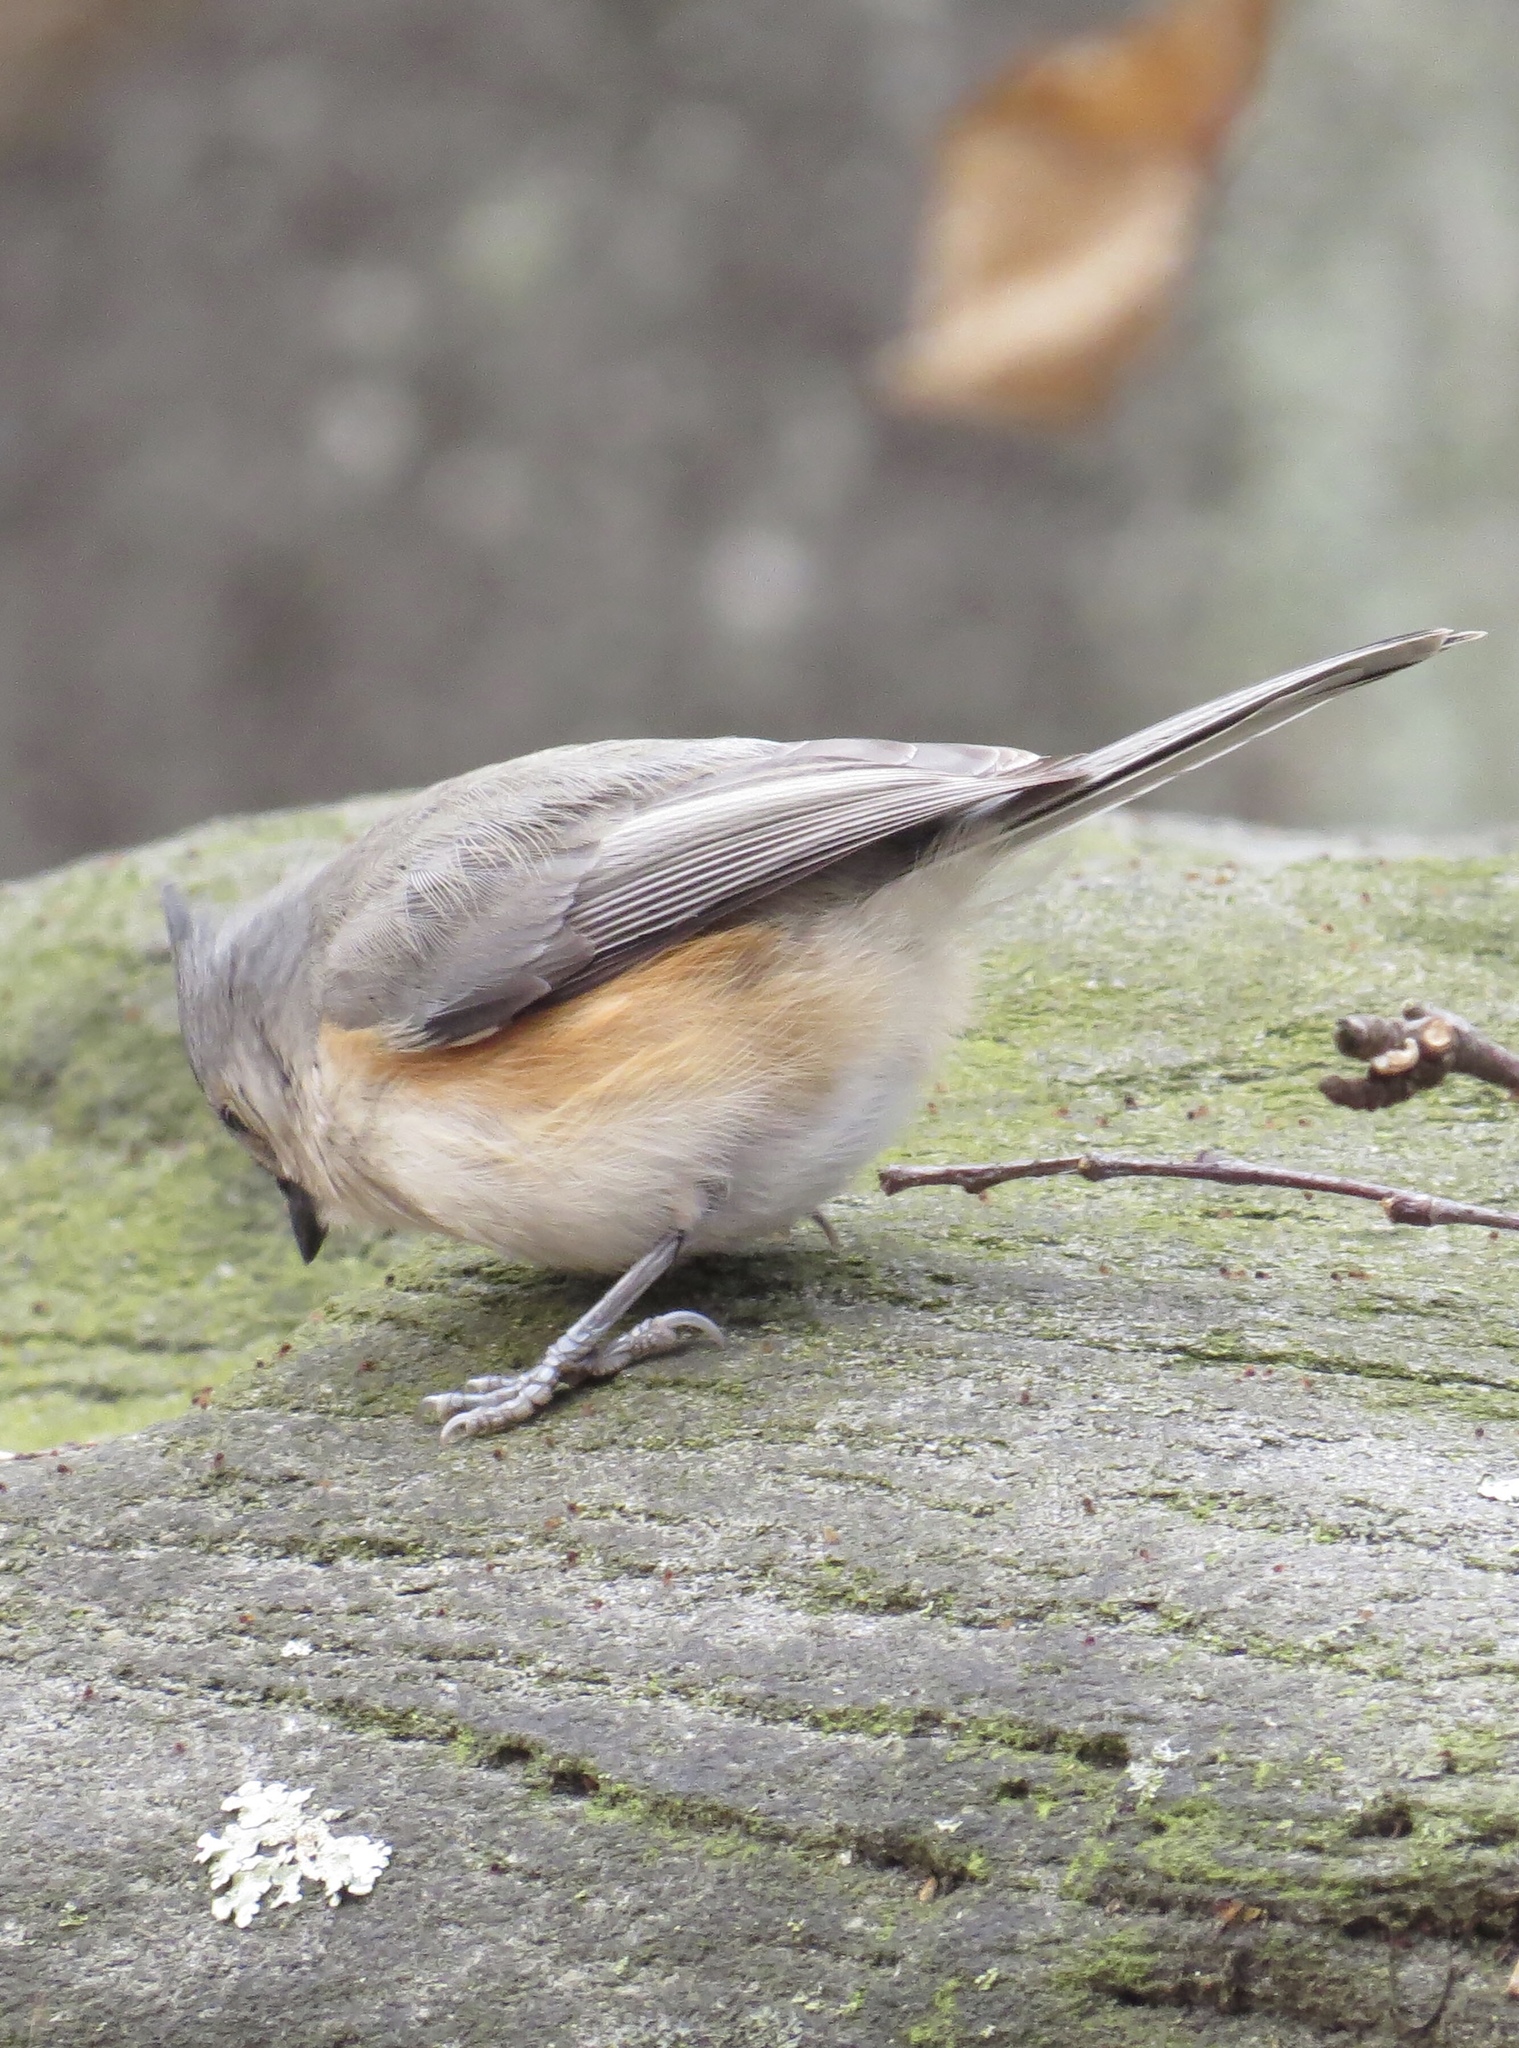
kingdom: Animalia
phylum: Chordata
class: Aves
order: Passeriformes
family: Paridae
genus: Baeolophus
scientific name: Baeolophus bicolor
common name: Tufted titmouse
